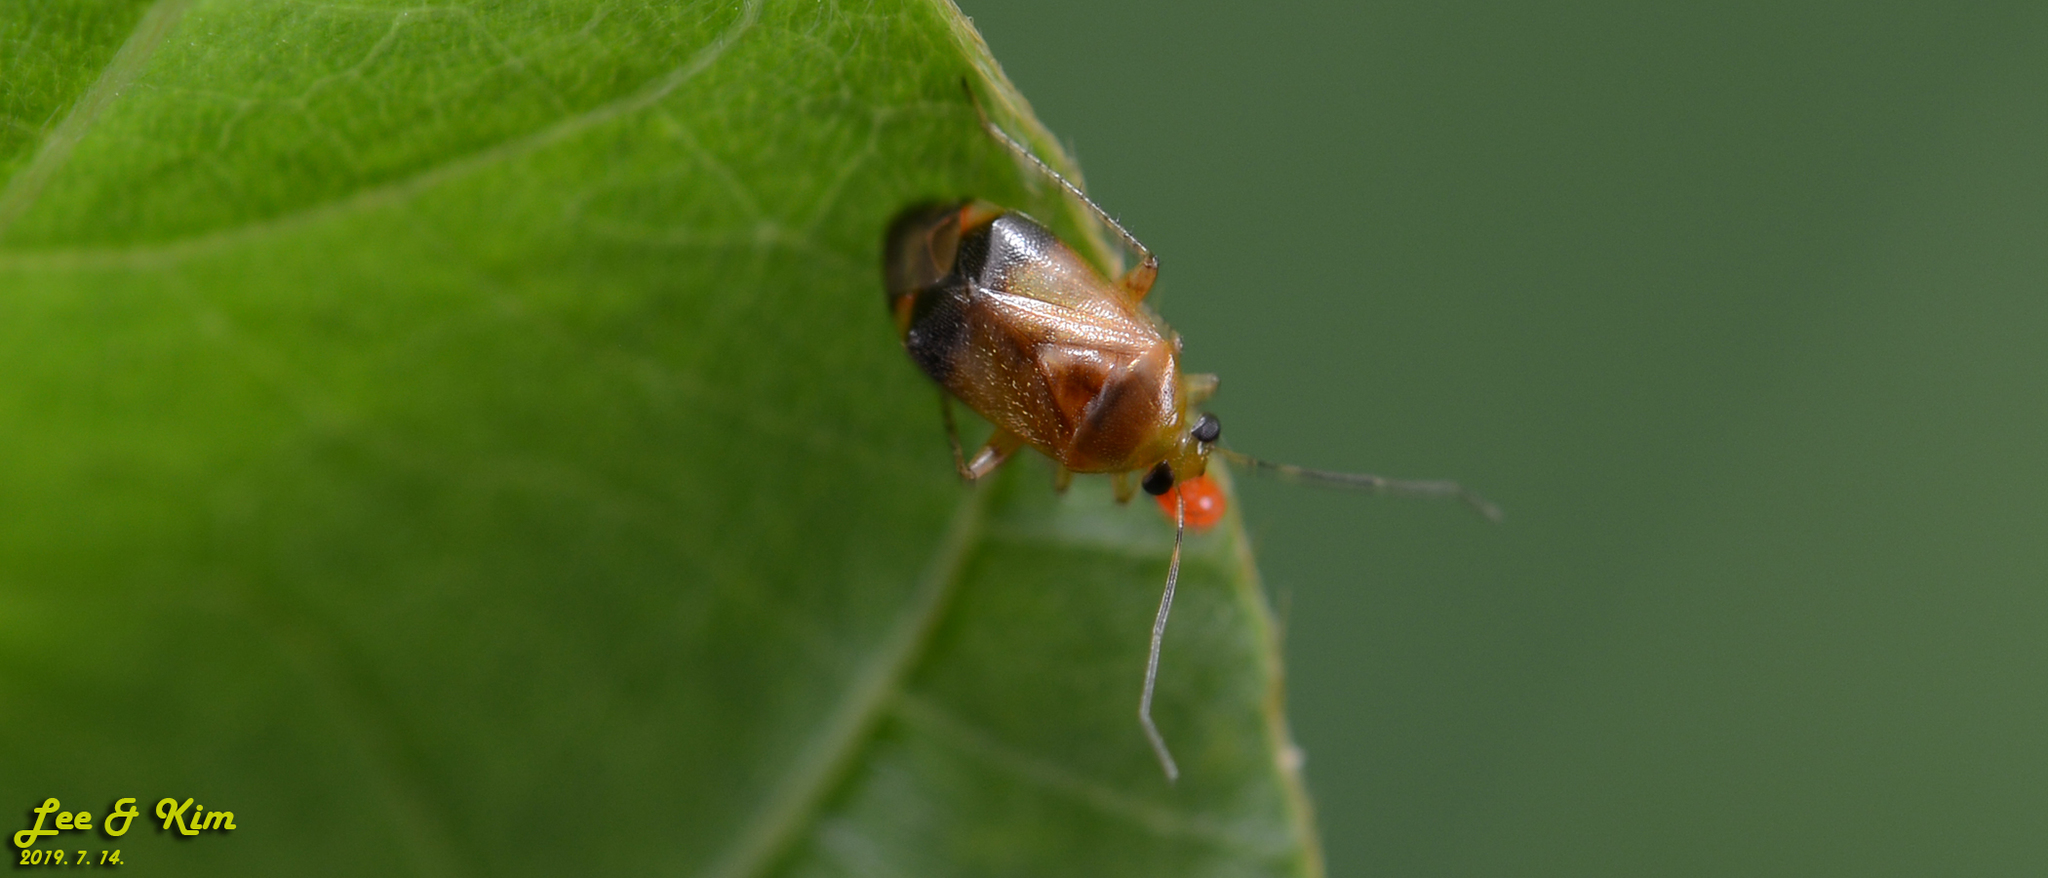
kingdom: Animalia
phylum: Arthropoda
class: Insecta
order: Hemiptera
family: Miridae
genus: Apolygus
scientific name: Apolygus hilaris
